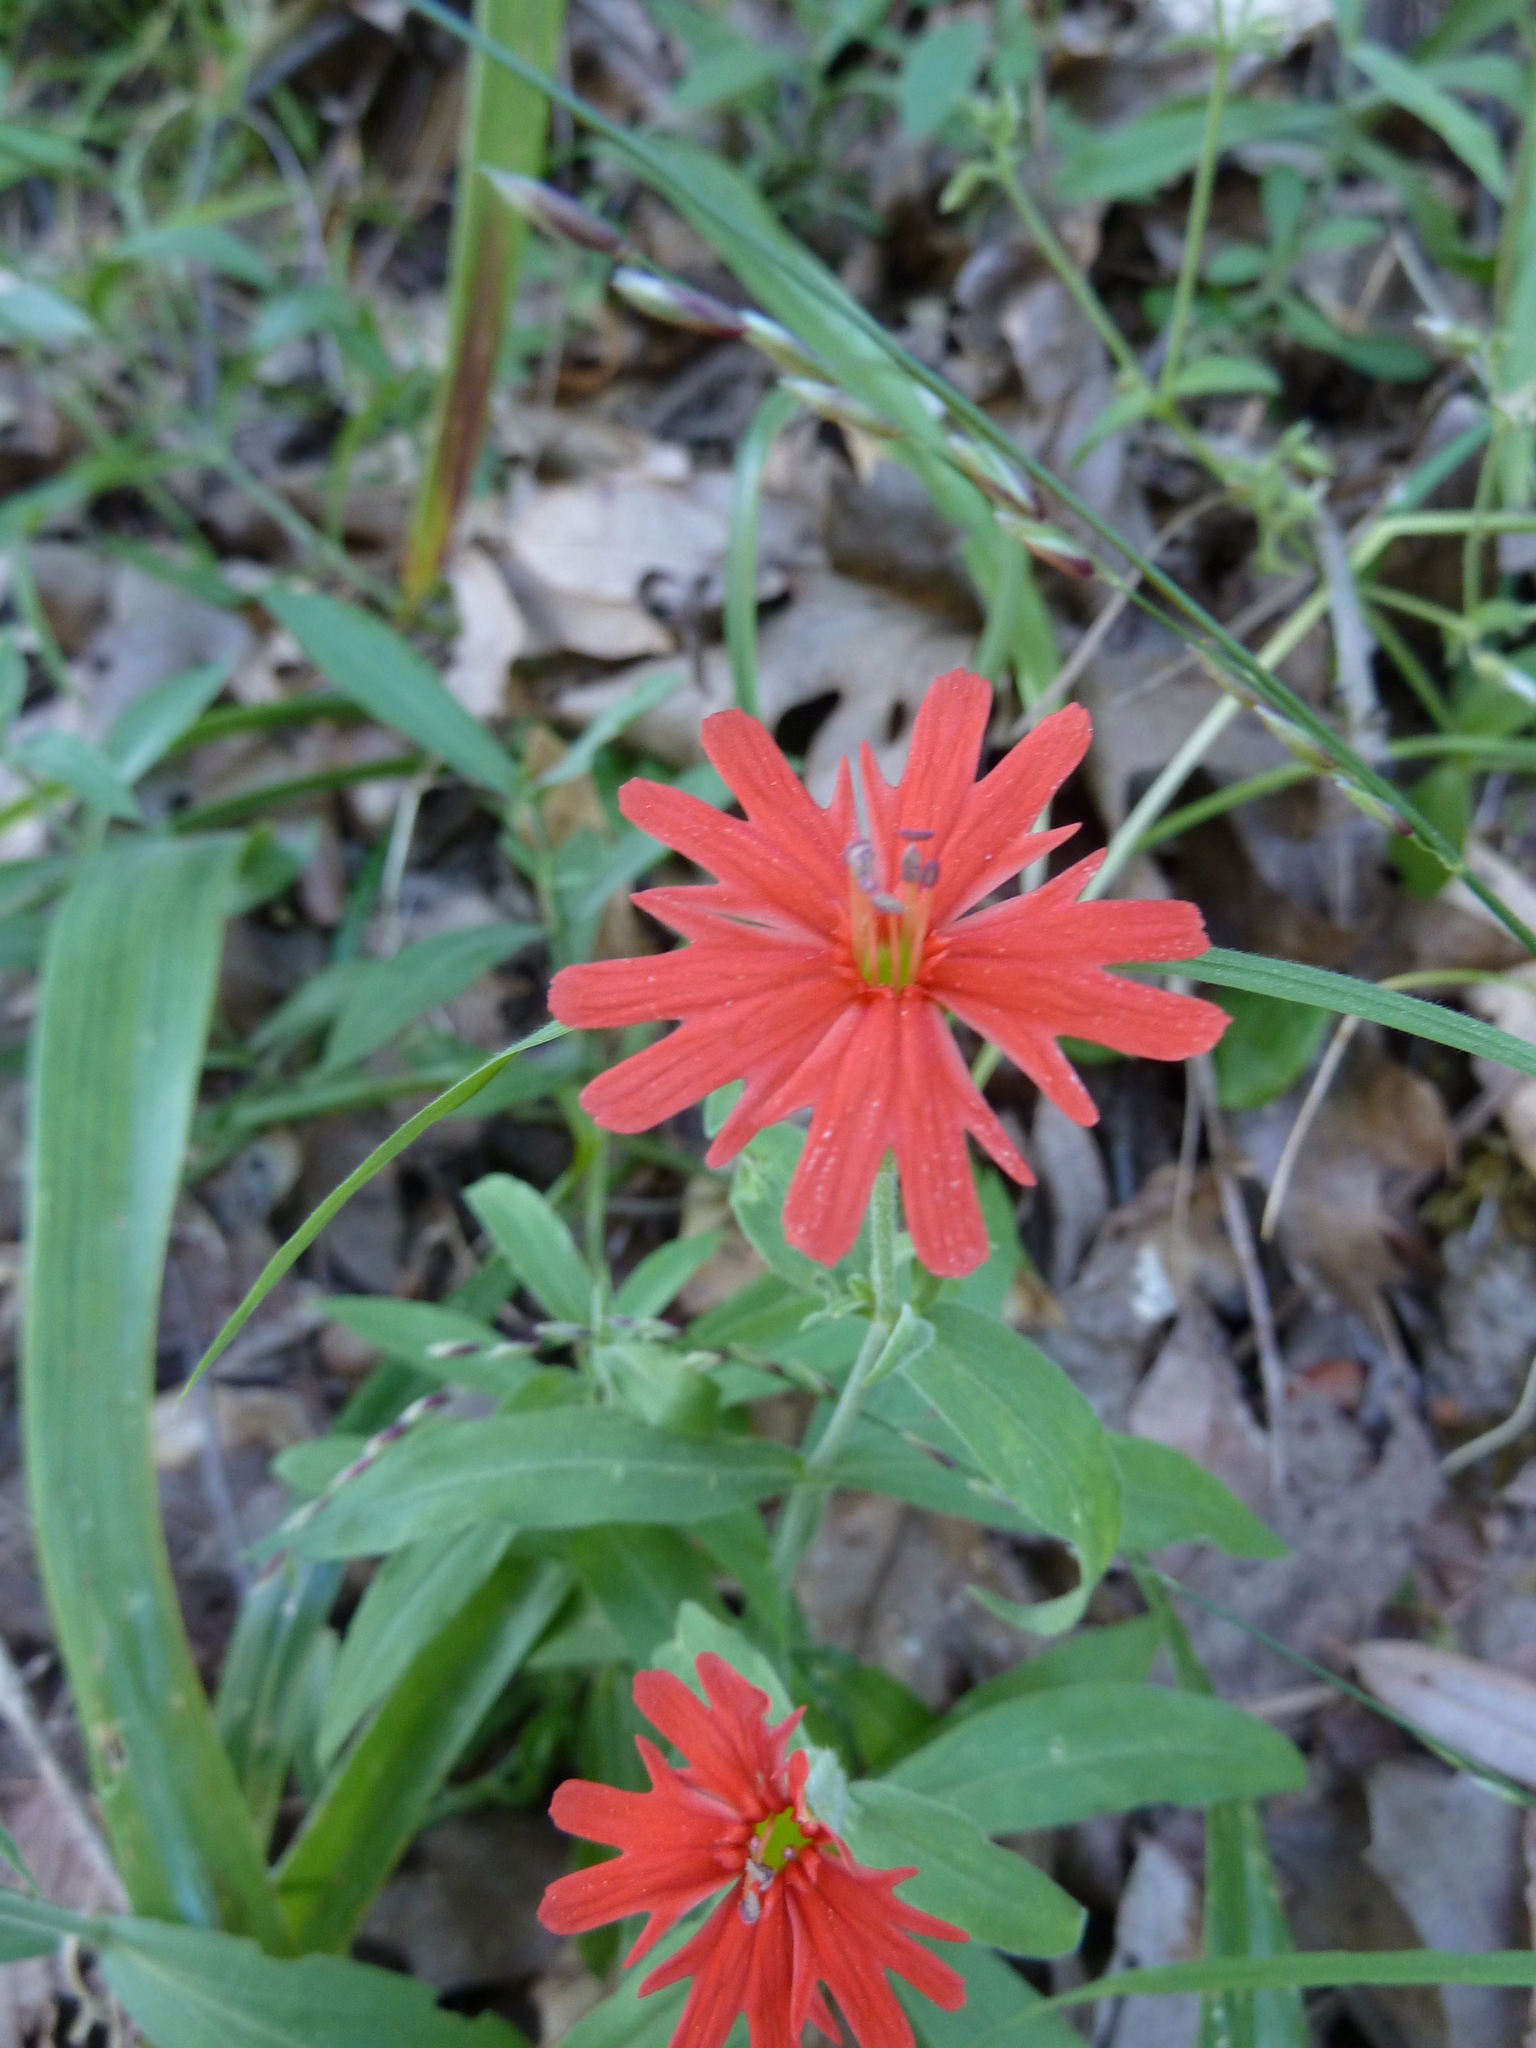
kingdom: Plantae
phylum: Tracheophyta
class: Magnoliopsida
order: Caryophyllales
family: Caryophyllaceae
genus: Silene
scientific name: Silene laciniata
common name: Indian-pink
